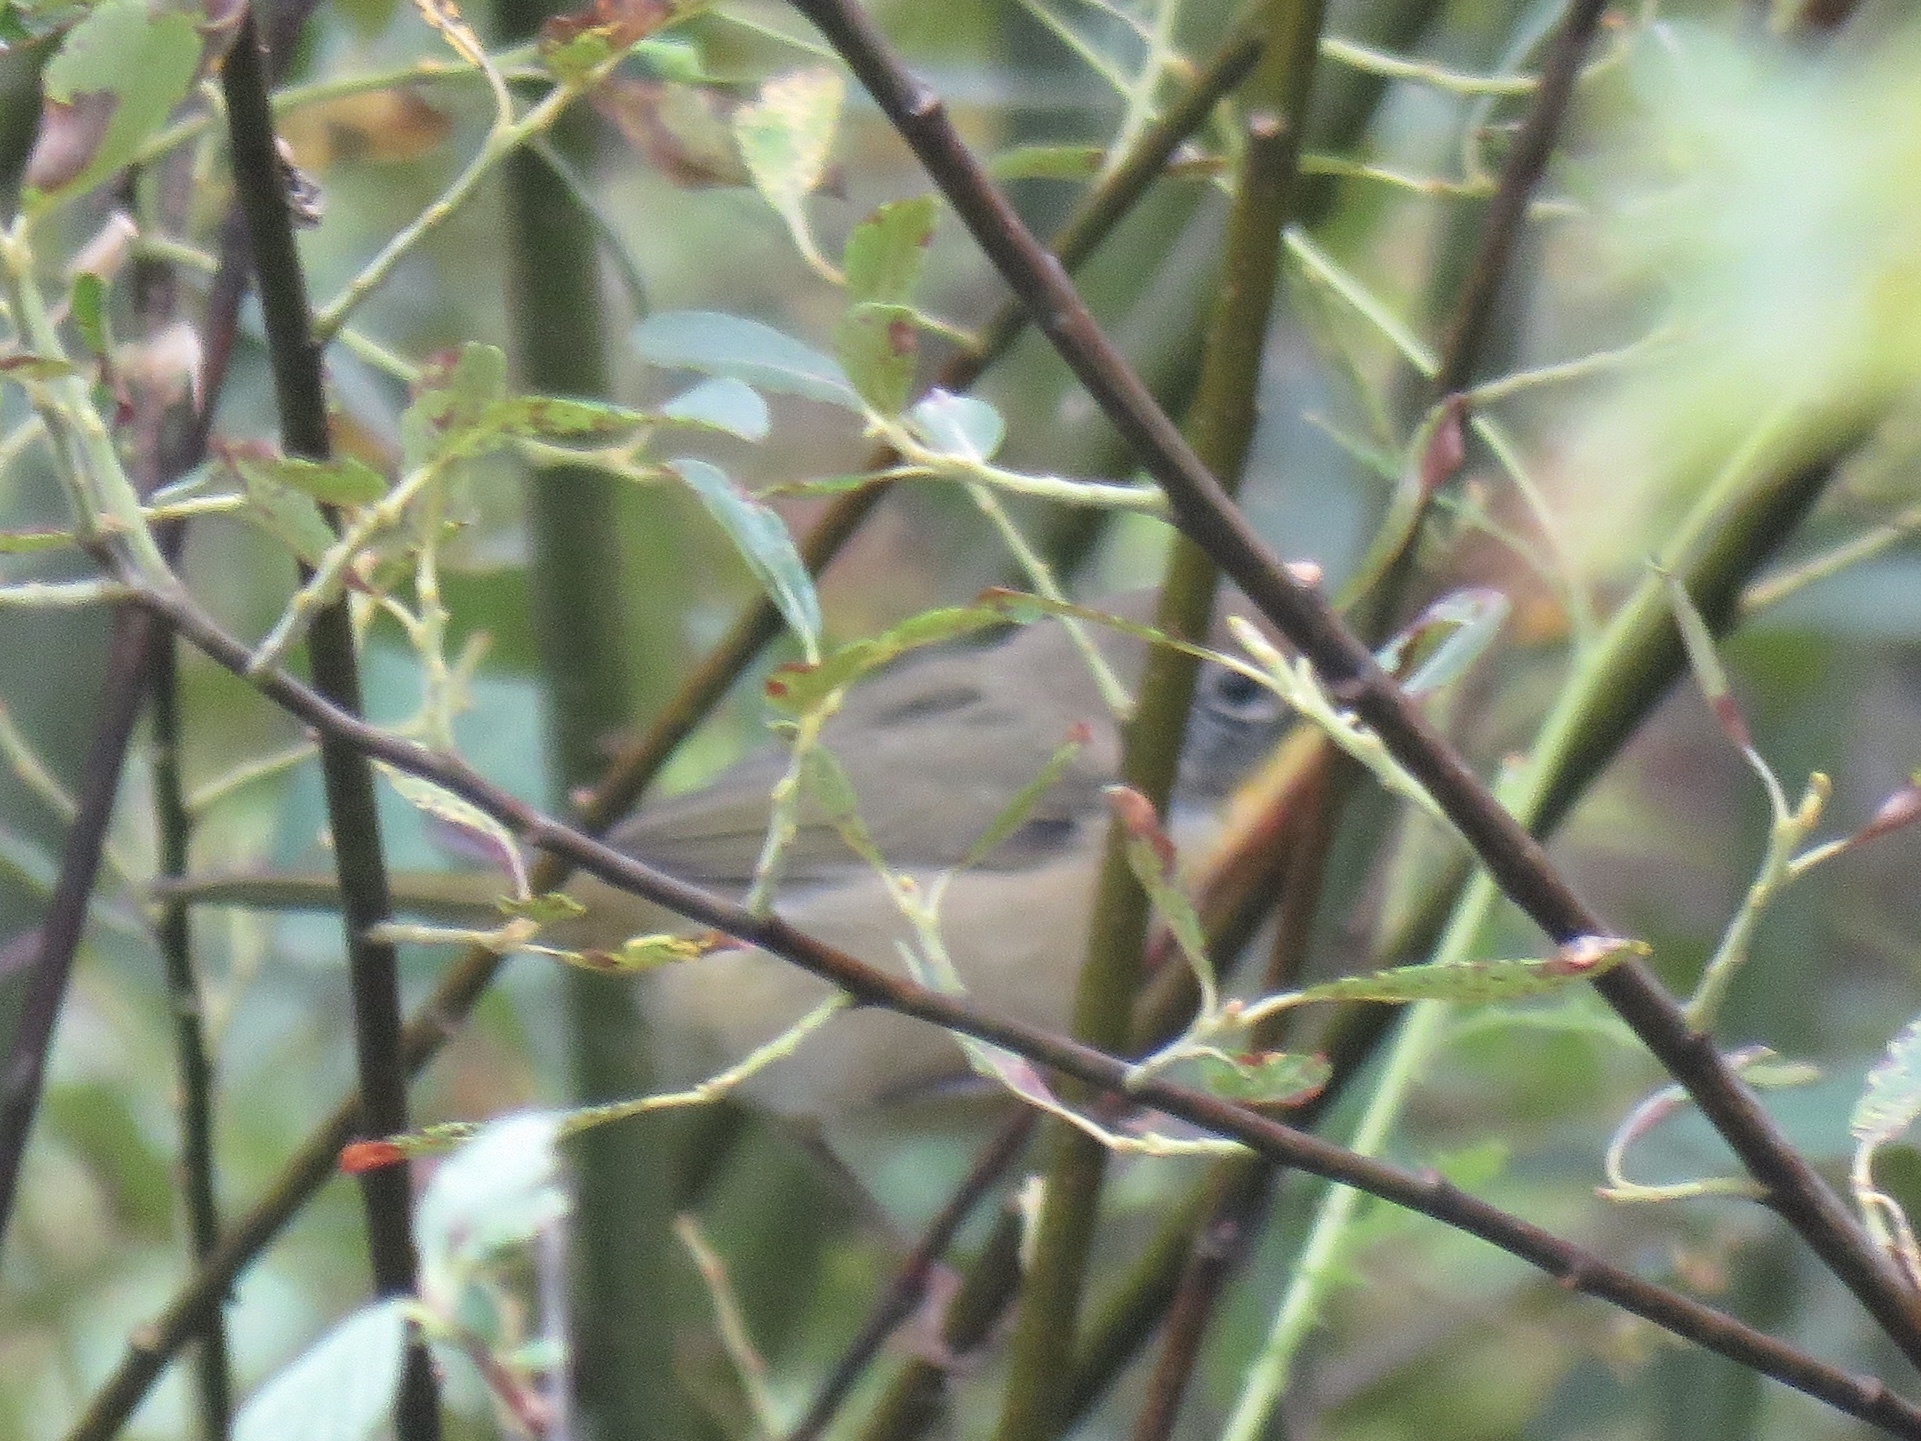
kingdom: Animalia
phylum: Chordata
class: Aves
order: Passeriformes
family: Parulidae
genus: Geothlypis
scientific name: Geothlypis trichas
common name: Common yellowthroat
